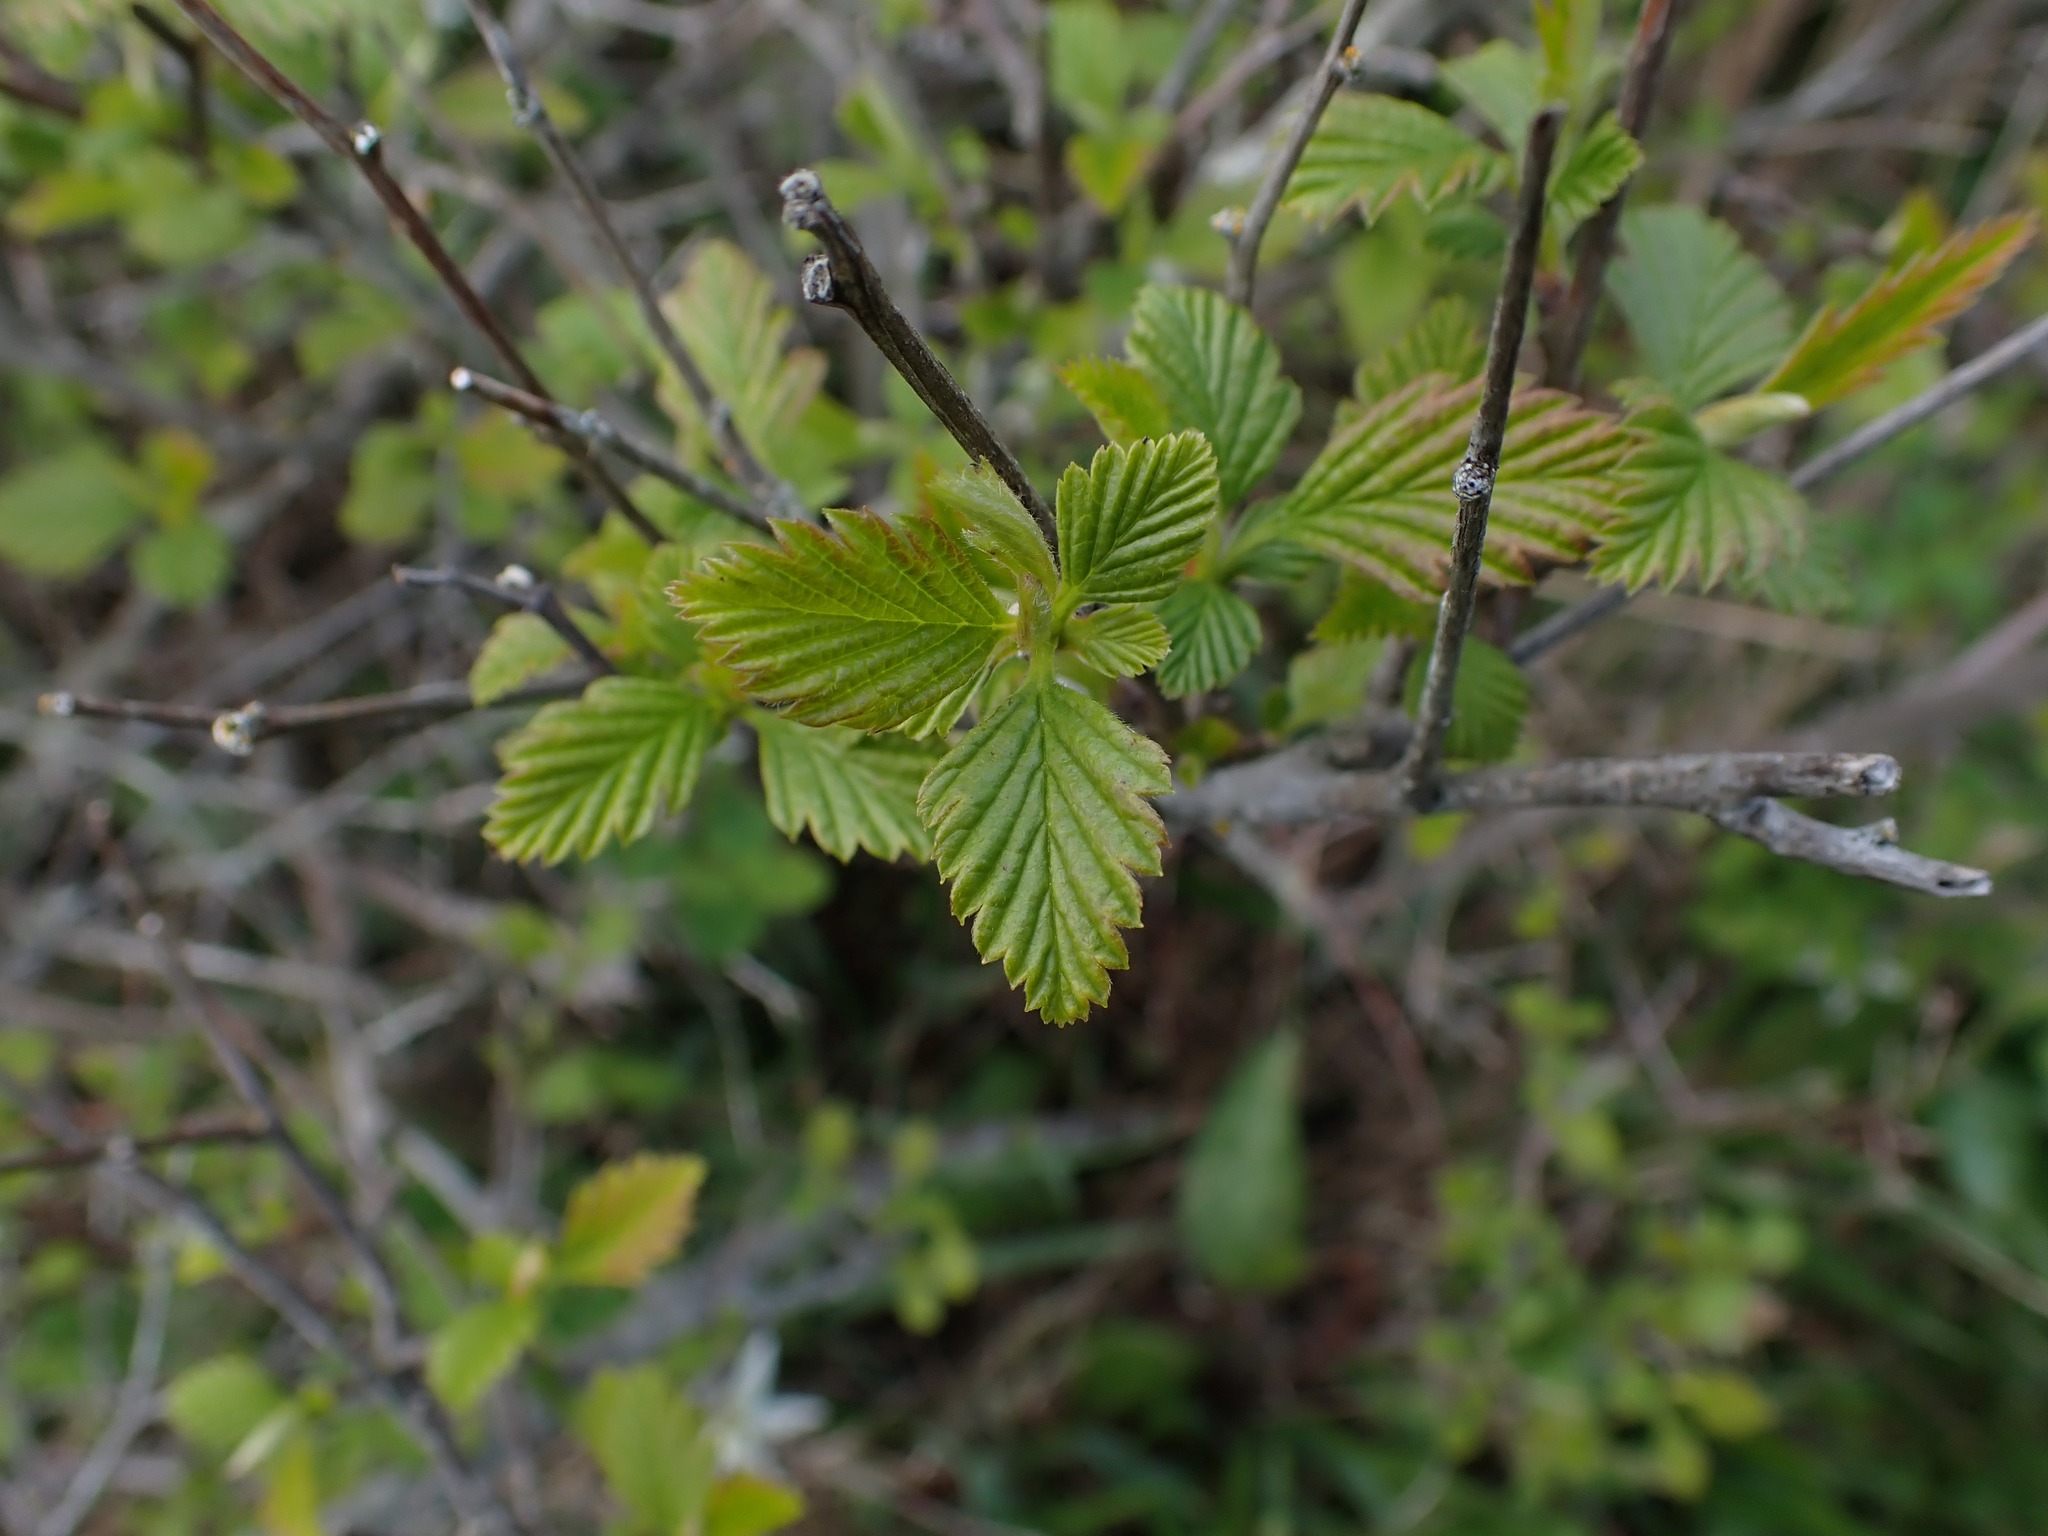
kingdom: Plantae
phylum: Tracheophyta
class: Magnoliopsida
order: Rosales
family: Rosaceae
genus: Holodiscus
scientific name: Holodiscus discolor
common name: Oceanspray
